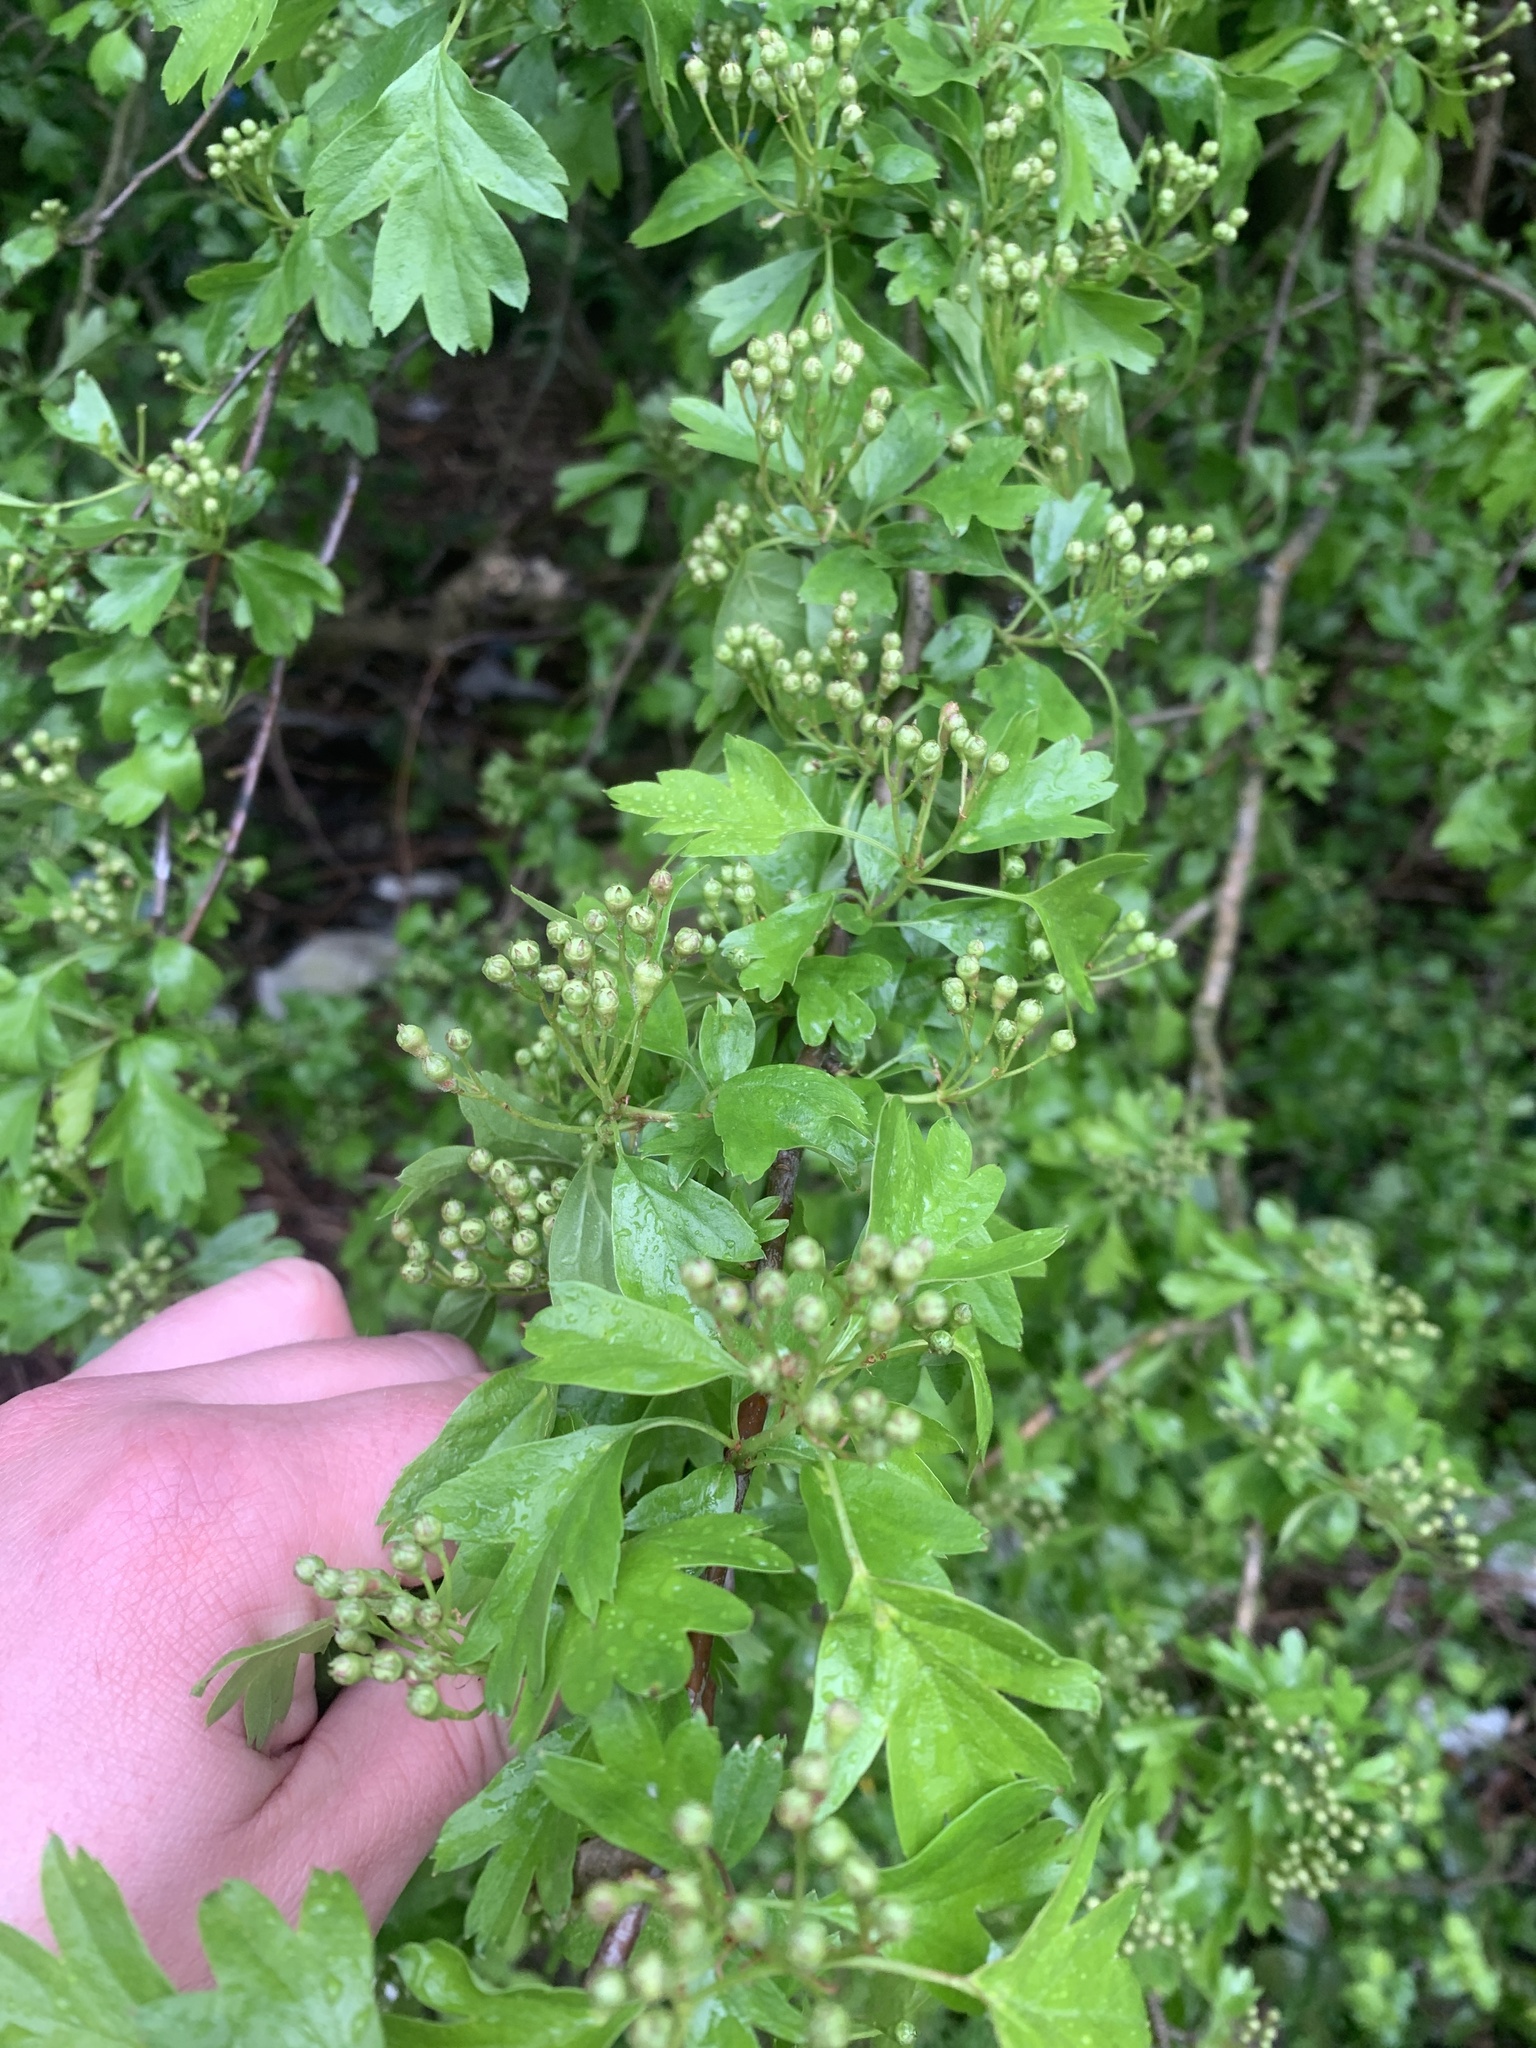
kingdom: Plantae
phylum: Tracheophyta
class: Magnoliopsida
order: Rosales
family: Rosaceae
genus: Crataegus
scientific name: Crataegus monogyna
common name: Hawthorn
